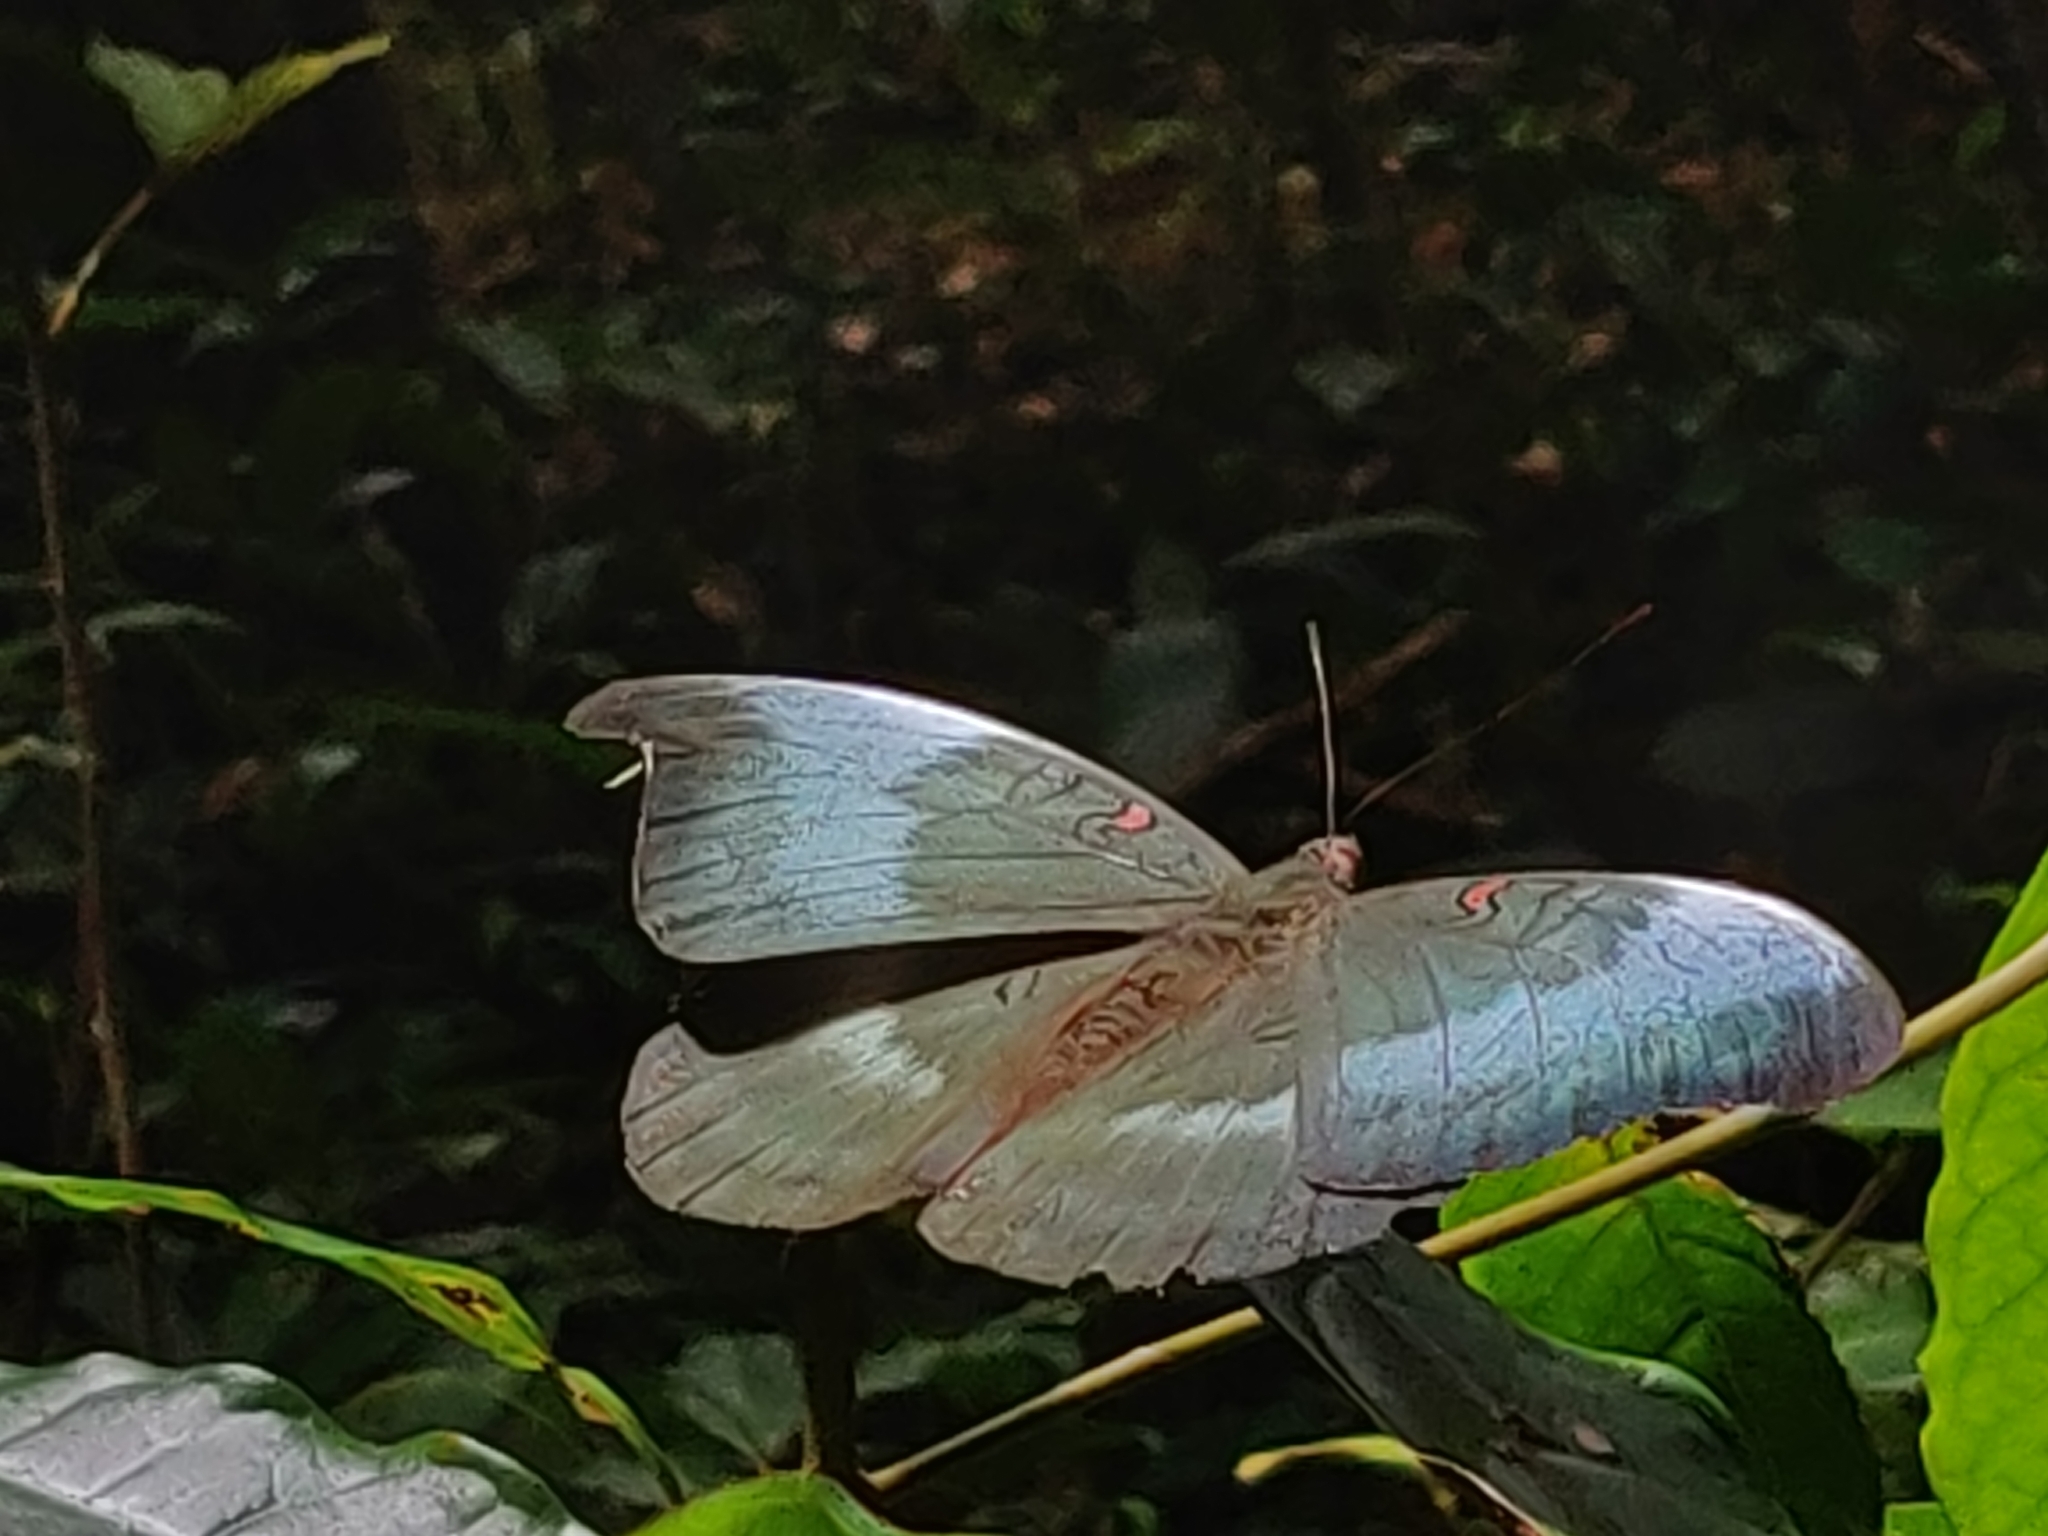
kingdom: Animalia
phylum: Arthropoda
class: Insecta
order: Lepidoptera
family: Nymphalidae
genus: Euthalia
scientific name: Euthalia Dophla evelina
